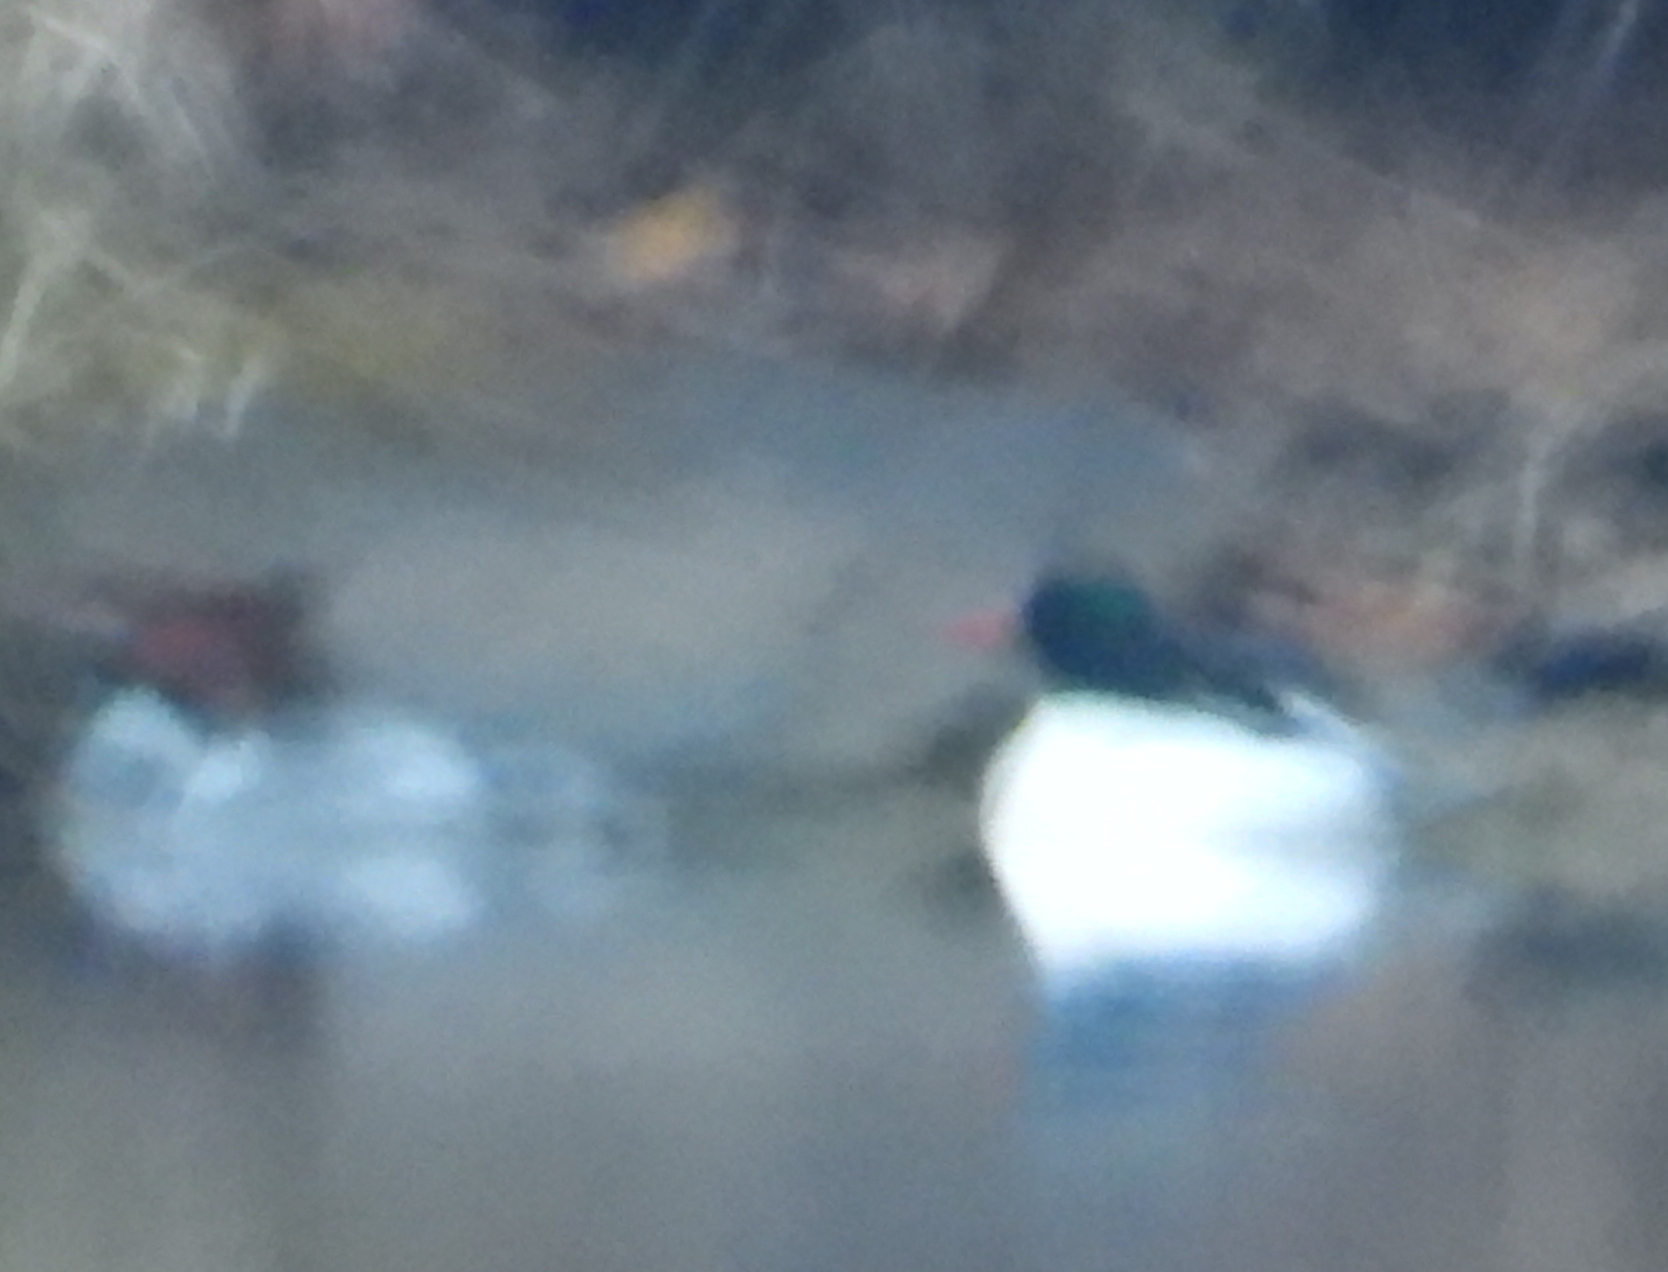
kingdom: Animalia
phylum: Chordata
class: Aves
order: Anseriformes
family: Anatidae
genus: Mergus
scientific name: Mergus merganser
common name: Common merganser
